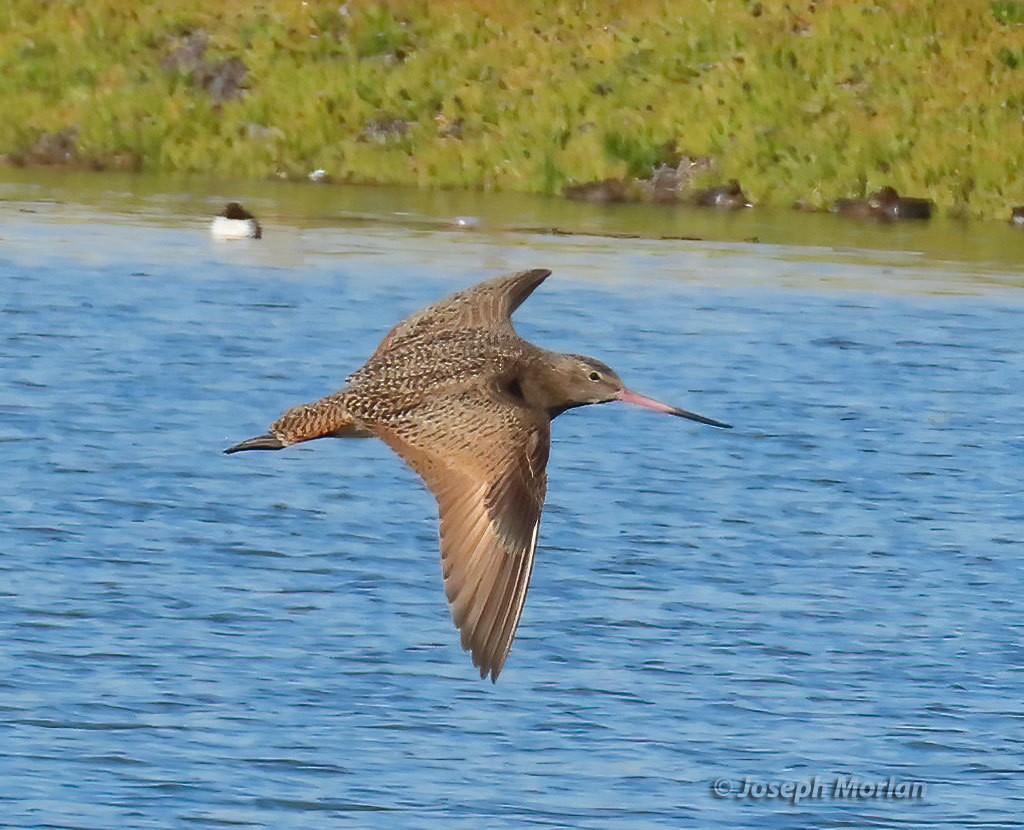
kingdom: Animalia
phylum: Chordata
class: Aves
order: Charadriiformes
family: Scolopacidae
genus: Limosa
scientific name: Limosa fedoa
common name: Marbled godwit
